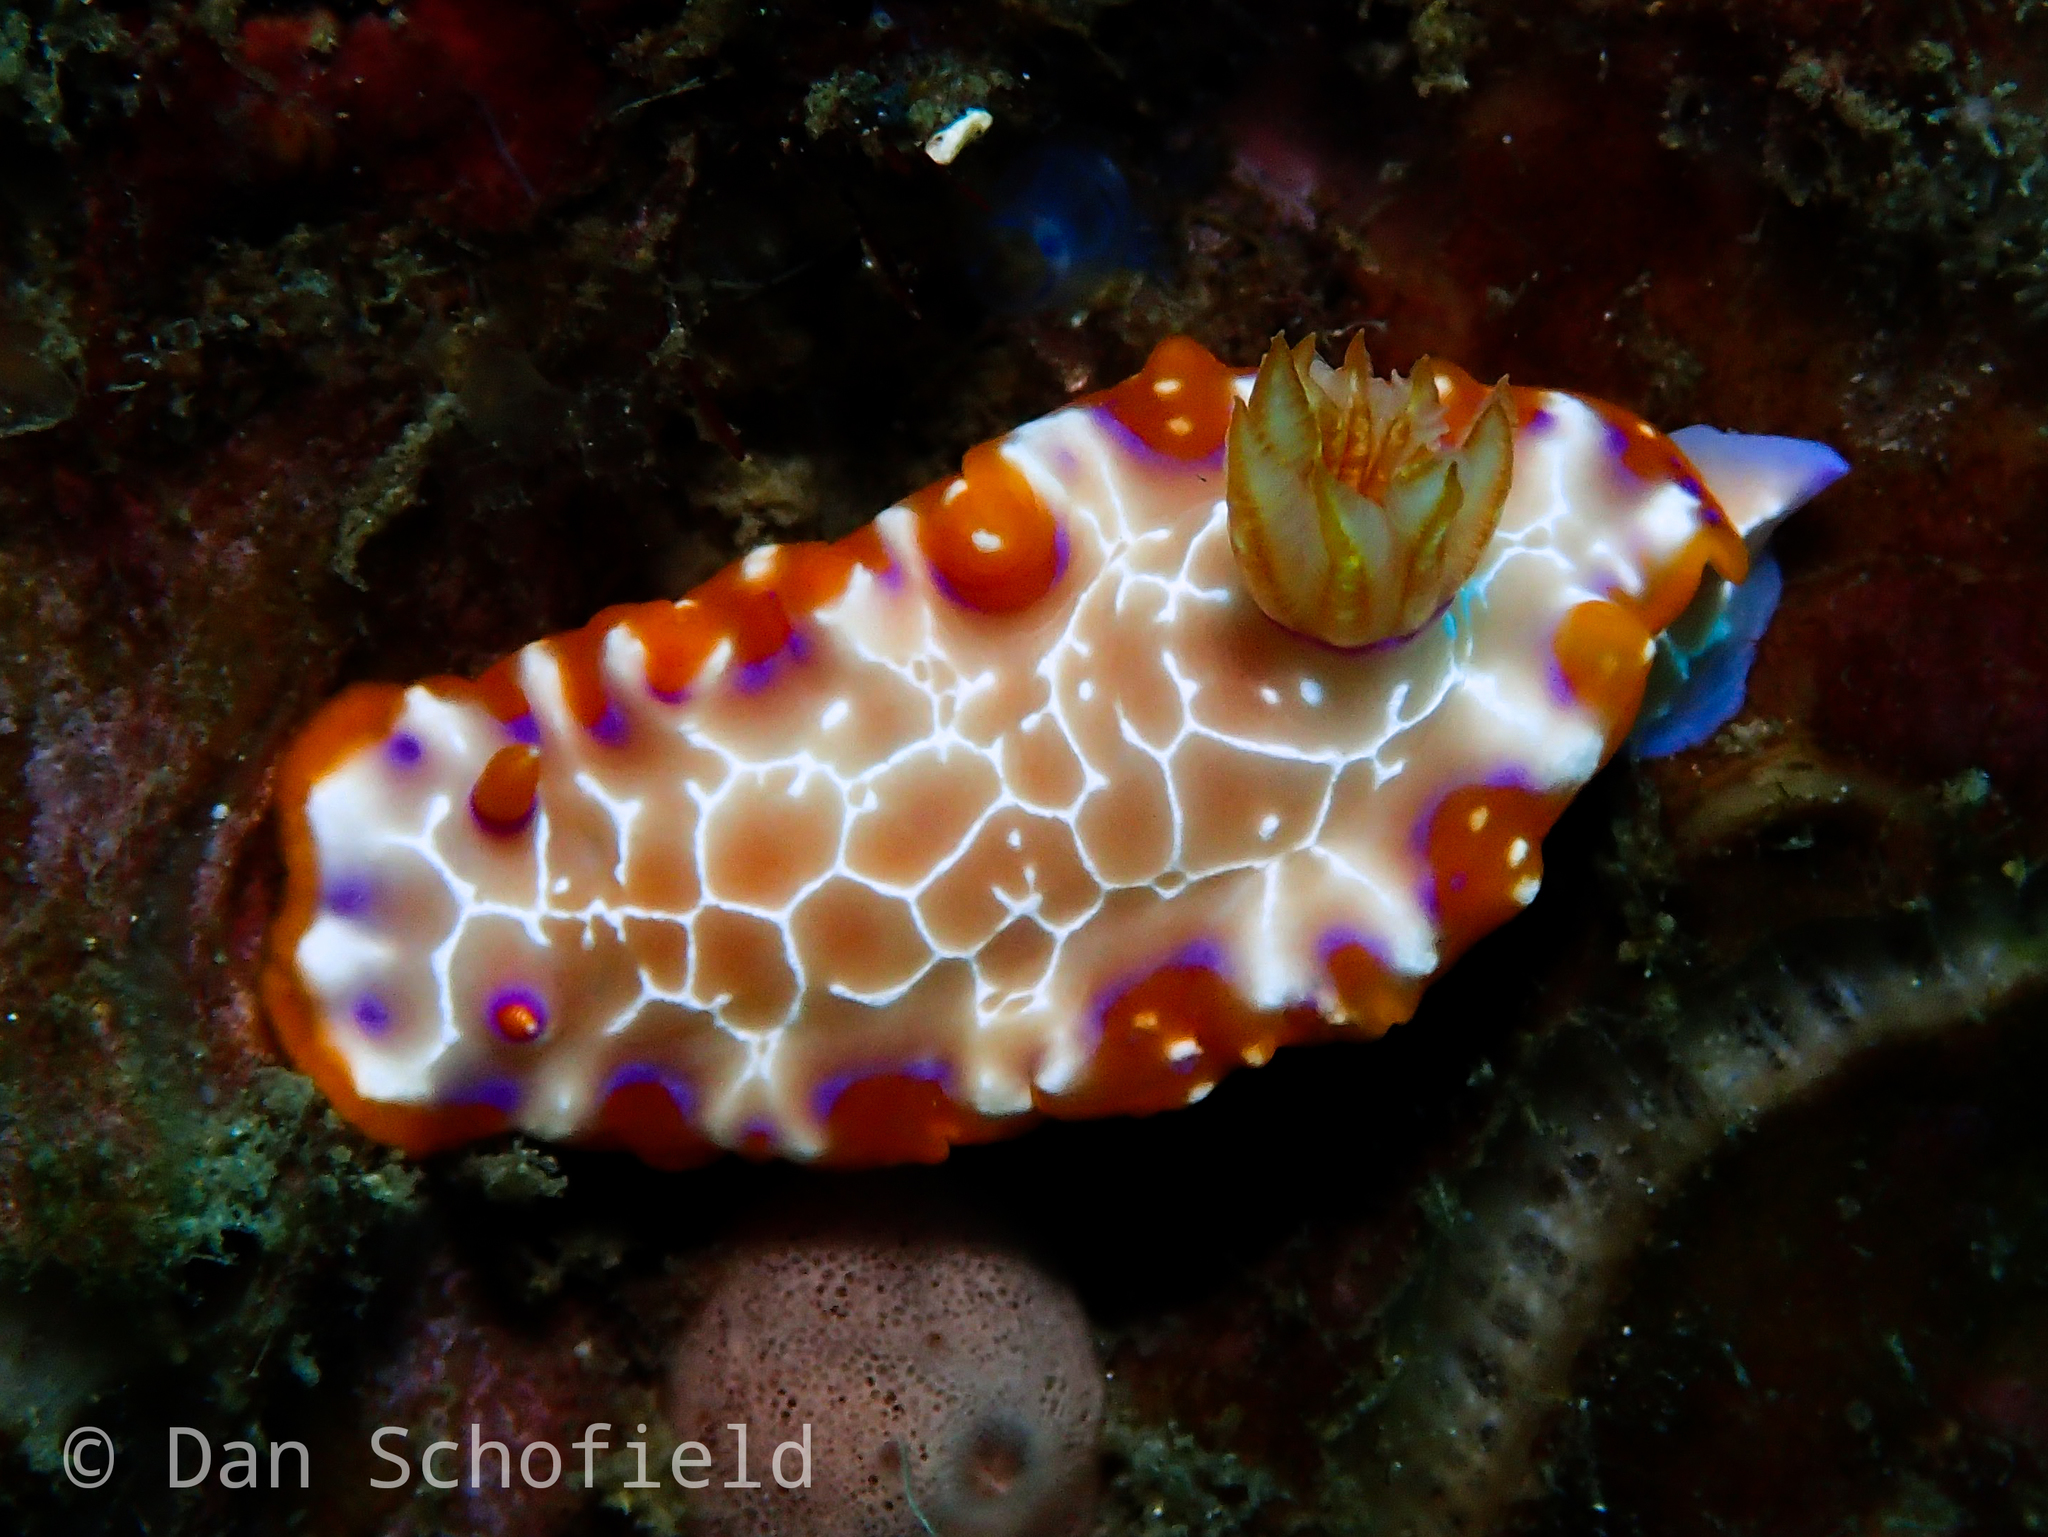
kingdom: Animalia
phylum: Mollusca
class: Gastropoda
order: Nudibranchia
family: Chromodorididae
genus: Hypselodoris
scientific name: Hypselodoris iacula
